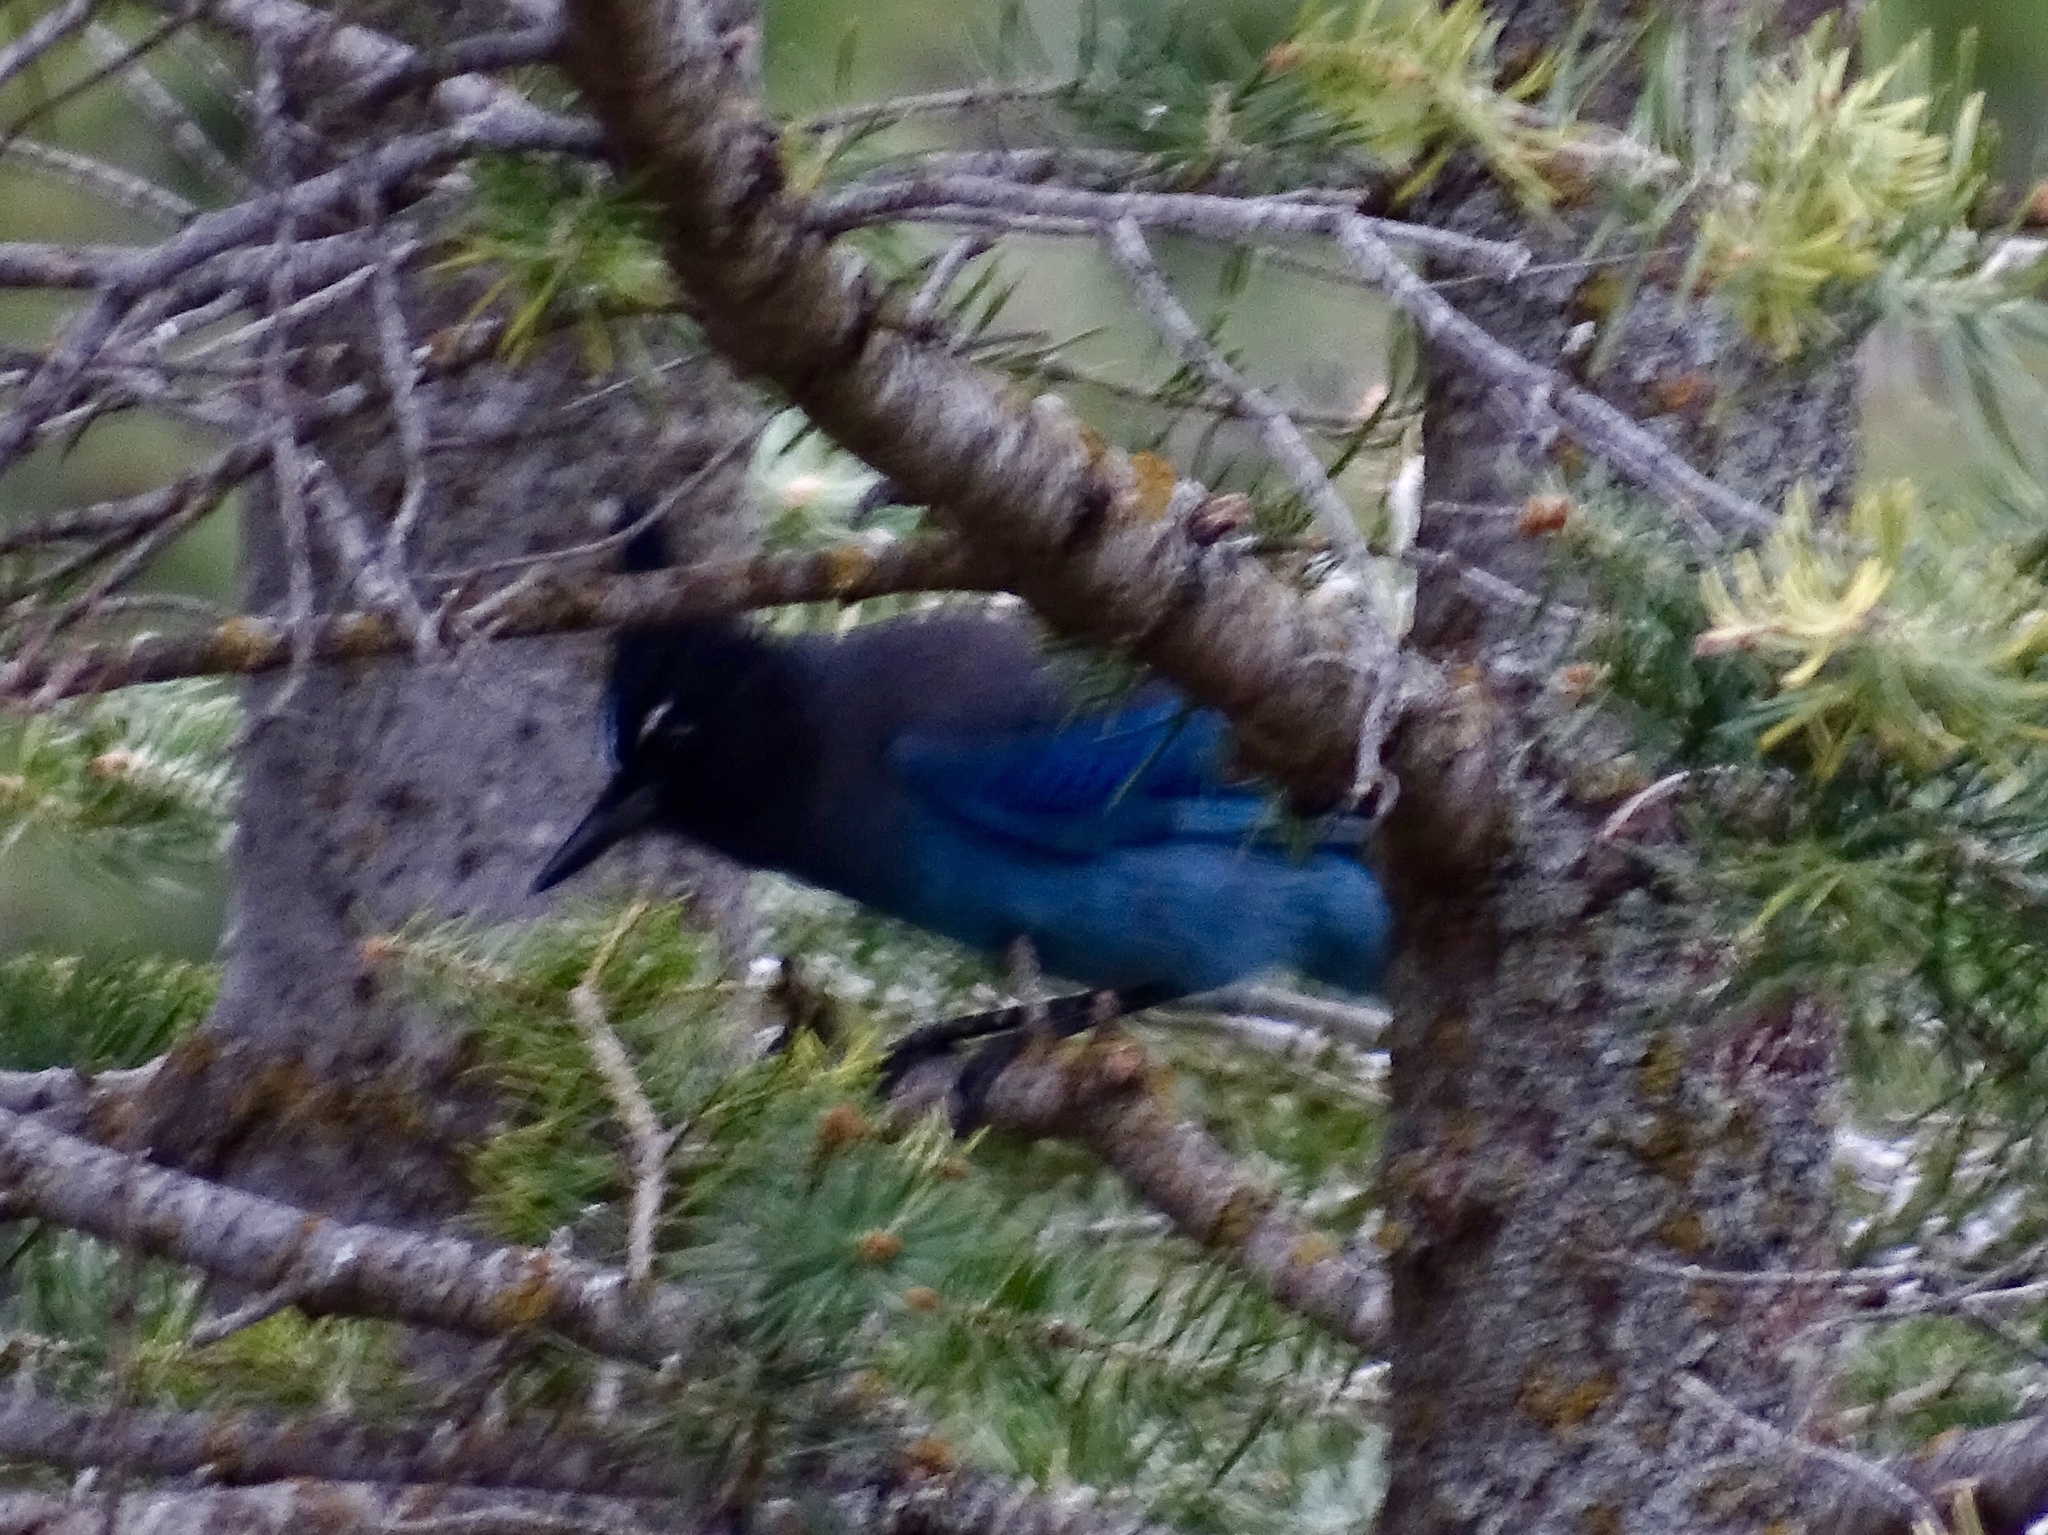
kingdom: Animalia
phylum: Chordata
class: Aves
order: Passeriformes
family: Corvidae
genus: Cyanocitta
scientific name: Cyanocitta stelleri
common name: Steller's jay
